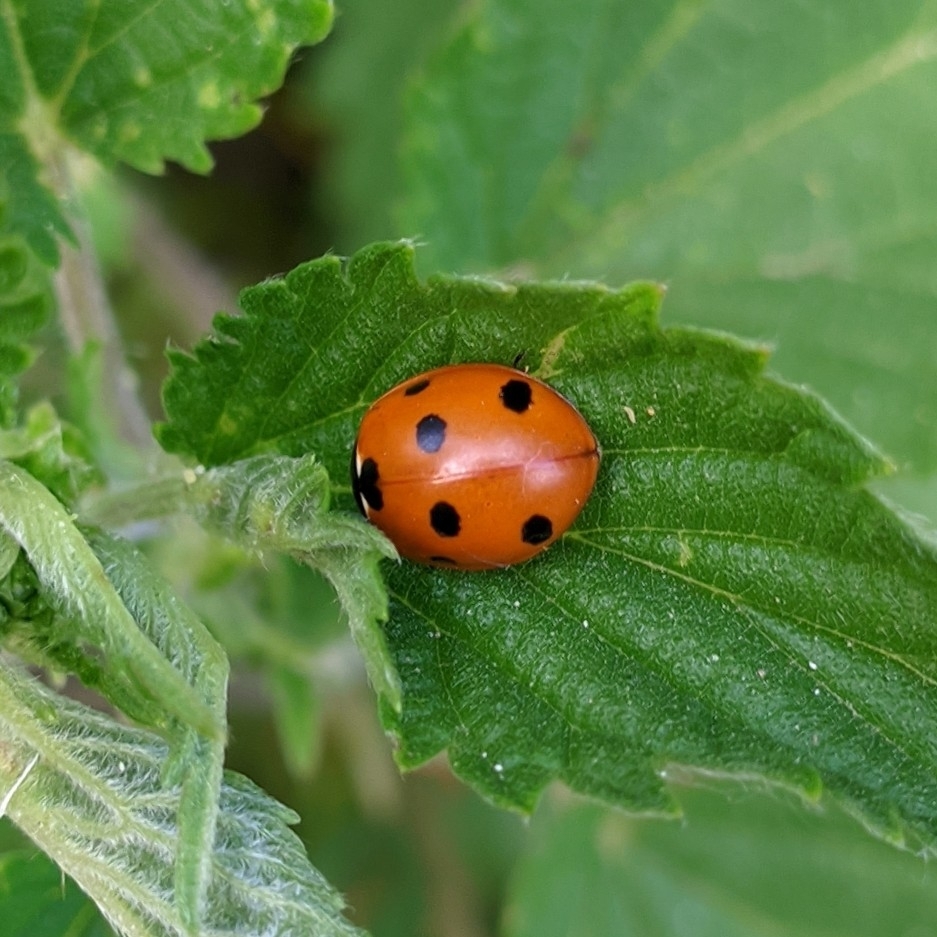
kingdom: Animalia
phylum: Arthropoda
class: Insecta
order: Coleoptera
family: Coccinellidae
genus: Coccinella
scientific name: Coccinella septempunctata
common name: Sevenspotted lady beetle
